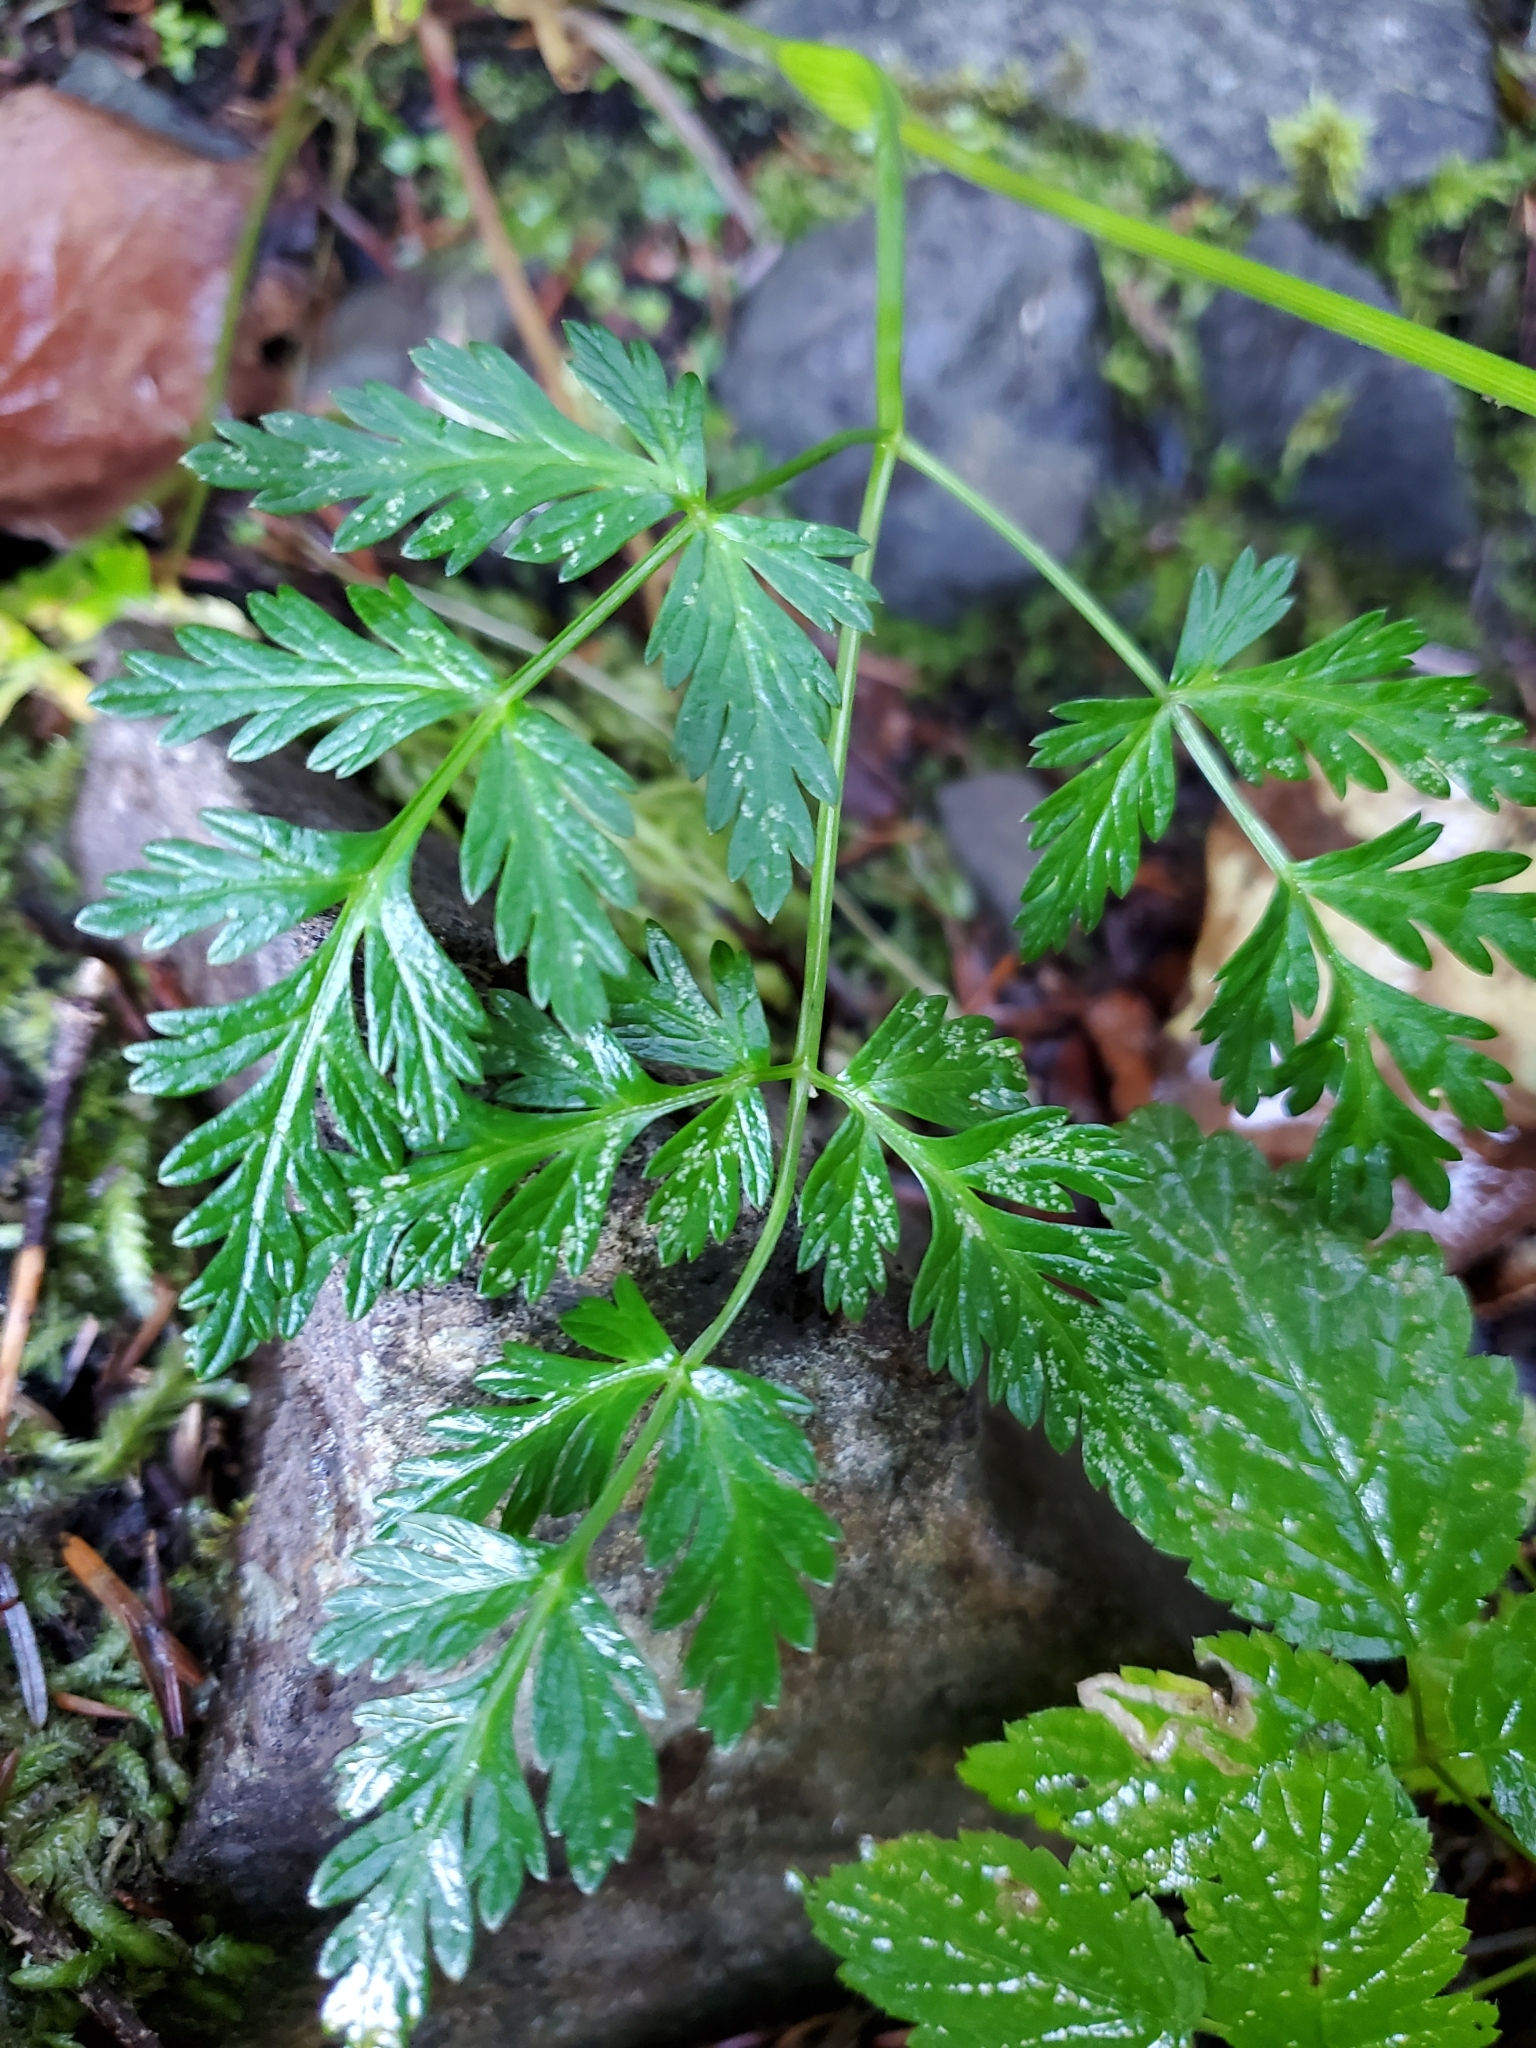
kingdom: Plantae
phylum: Tracheophyta
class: Magnoliopsida
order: Apiales
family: Apiaceae
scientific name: Apiaceae
